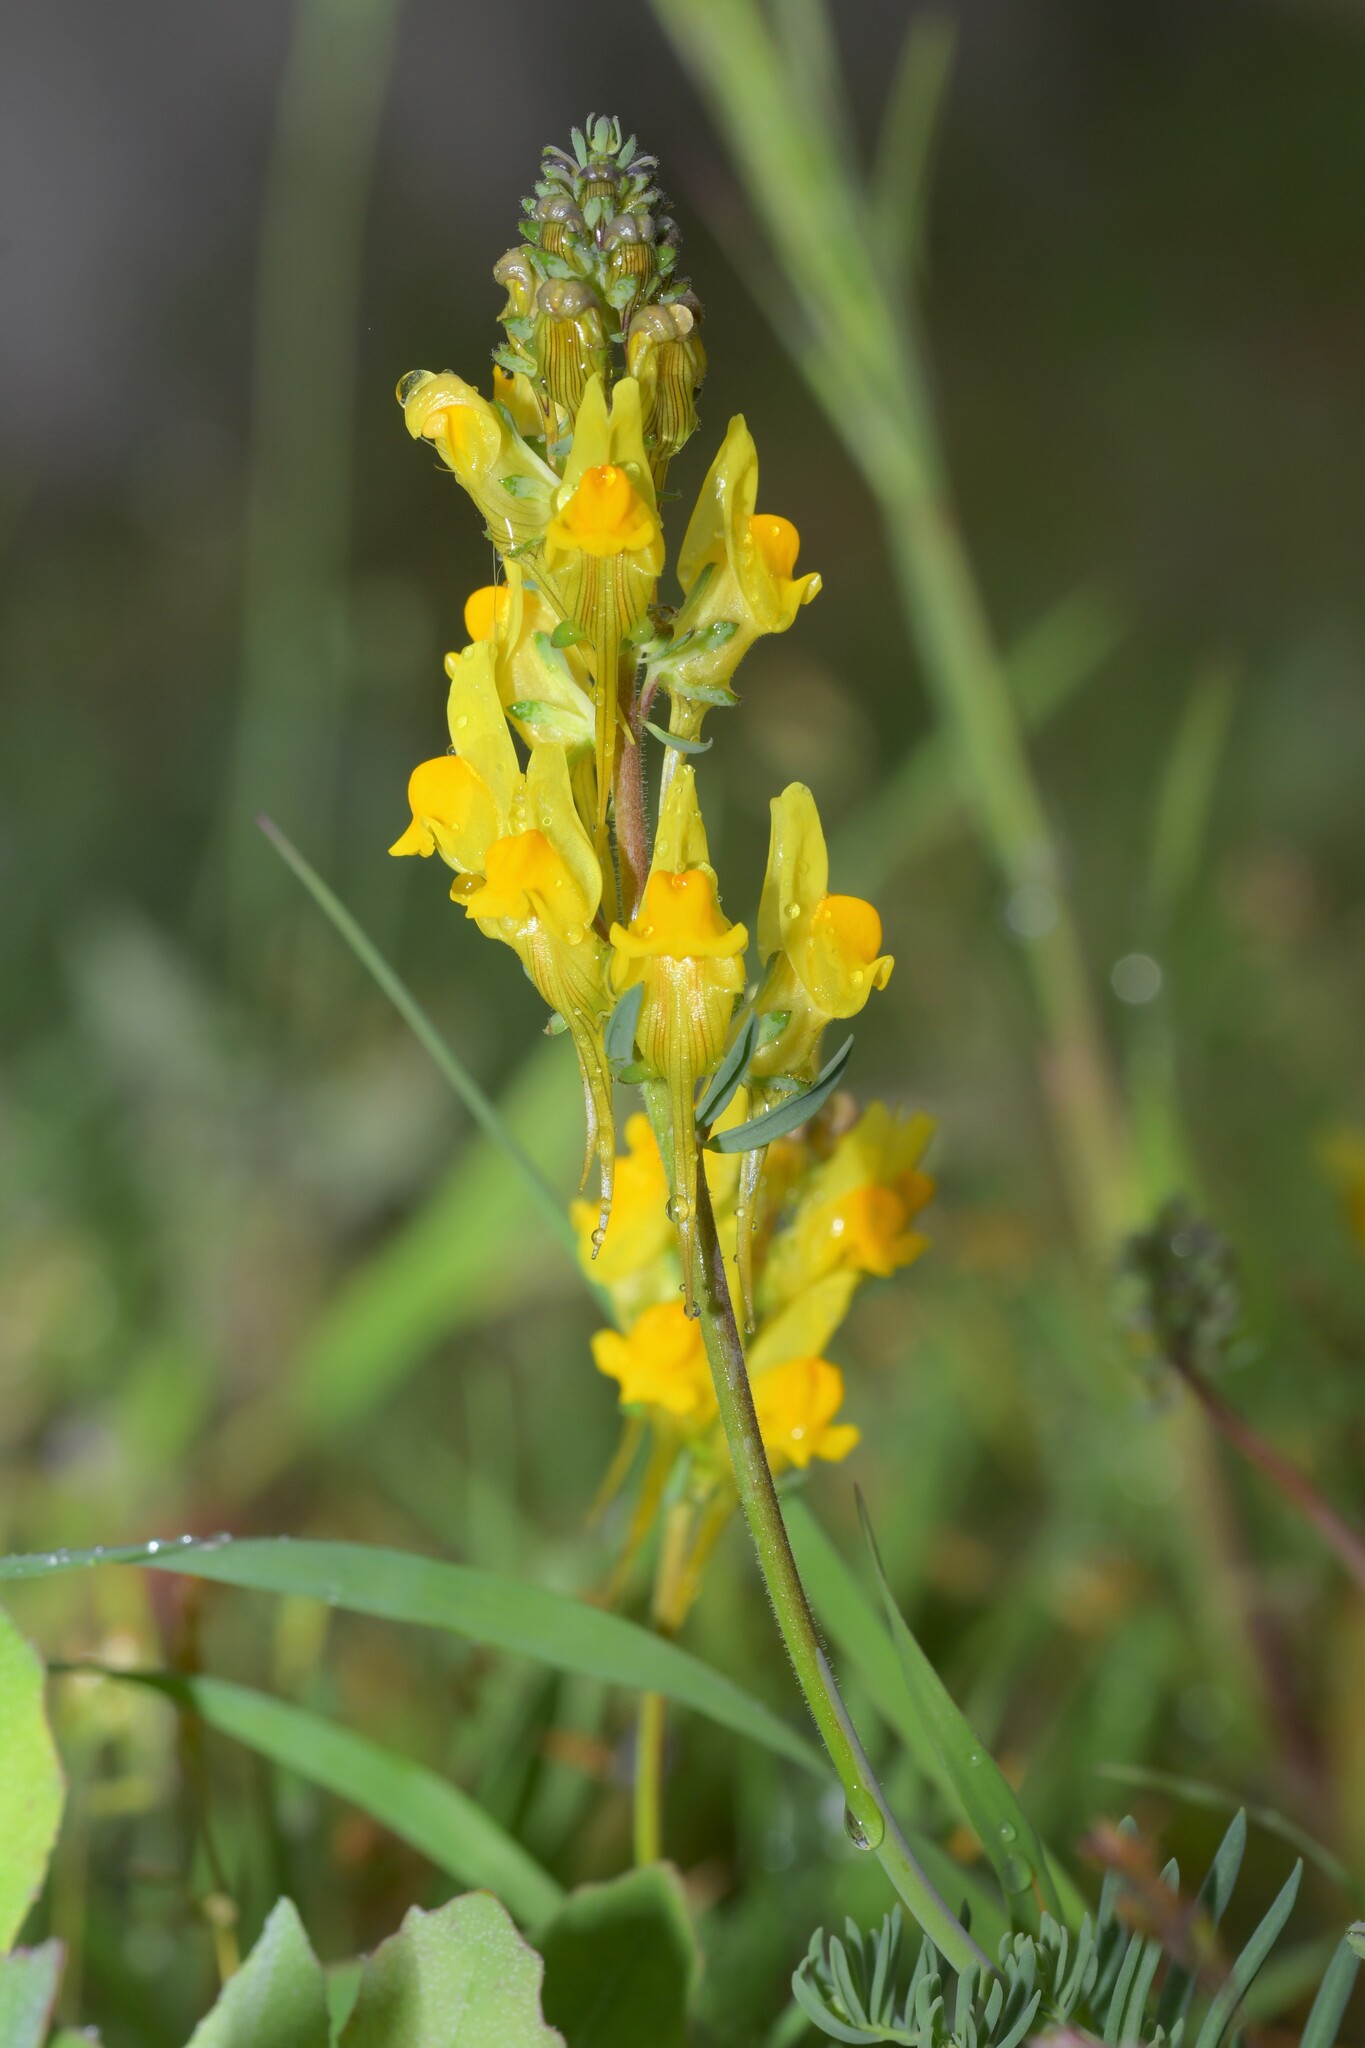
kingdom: Plantae
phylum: Tracheophyta
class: Magnoliopsida
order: Lamiales
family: Plantaginaceae
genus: Linaria
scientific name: Linaria supina
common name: Prostrate toadflax
